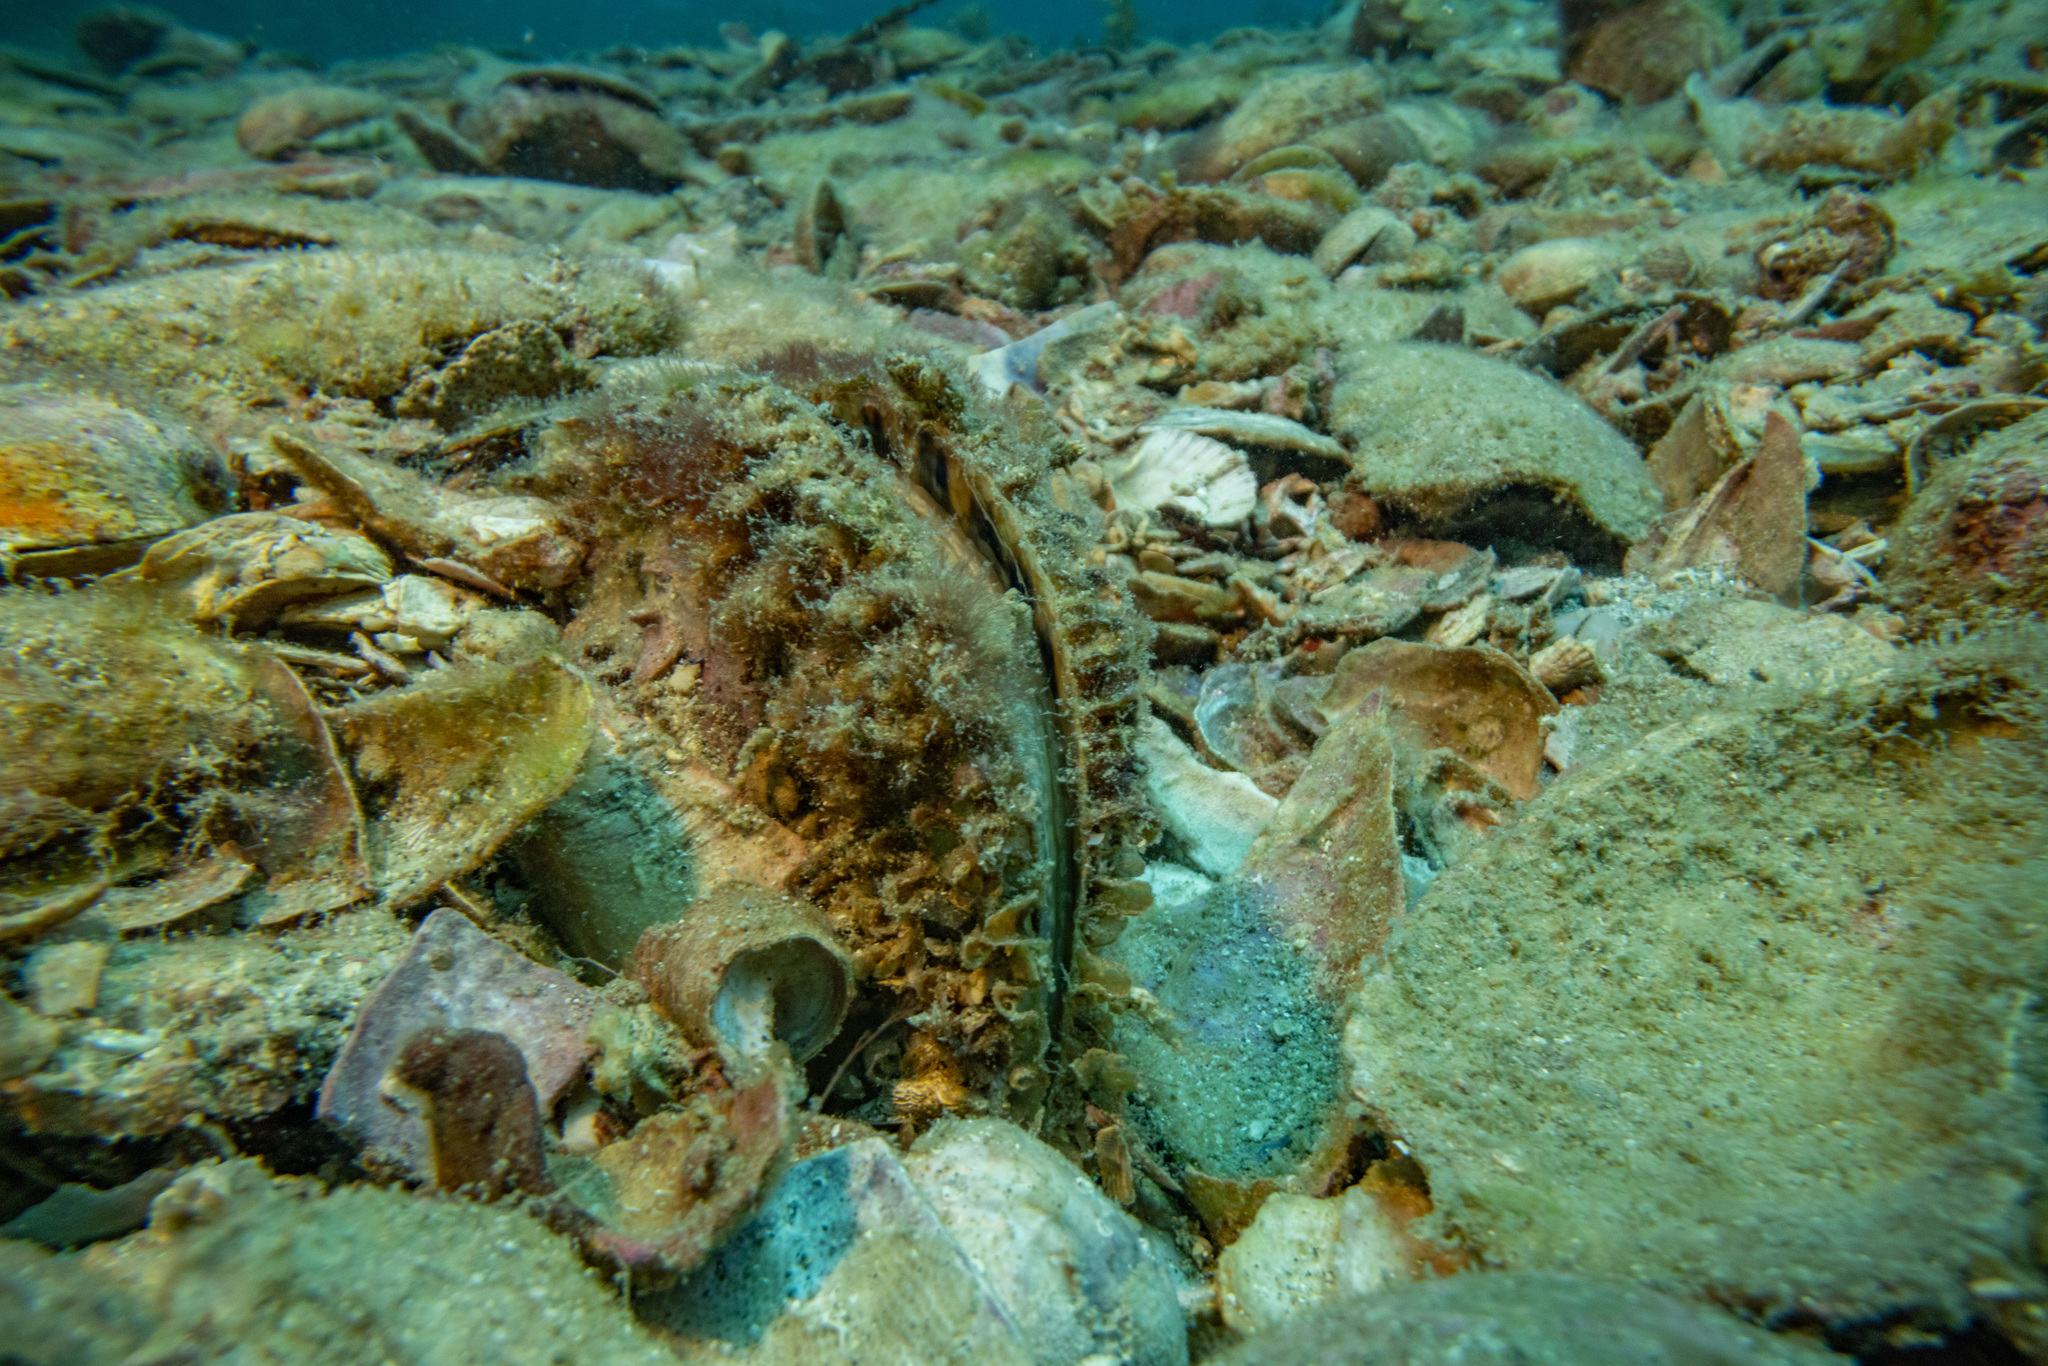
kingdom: Animalia
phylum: Mollusca
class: Bivalvia
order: Ostreida
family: Pinnidae
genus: Atrina
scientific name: Atrina zelandica
